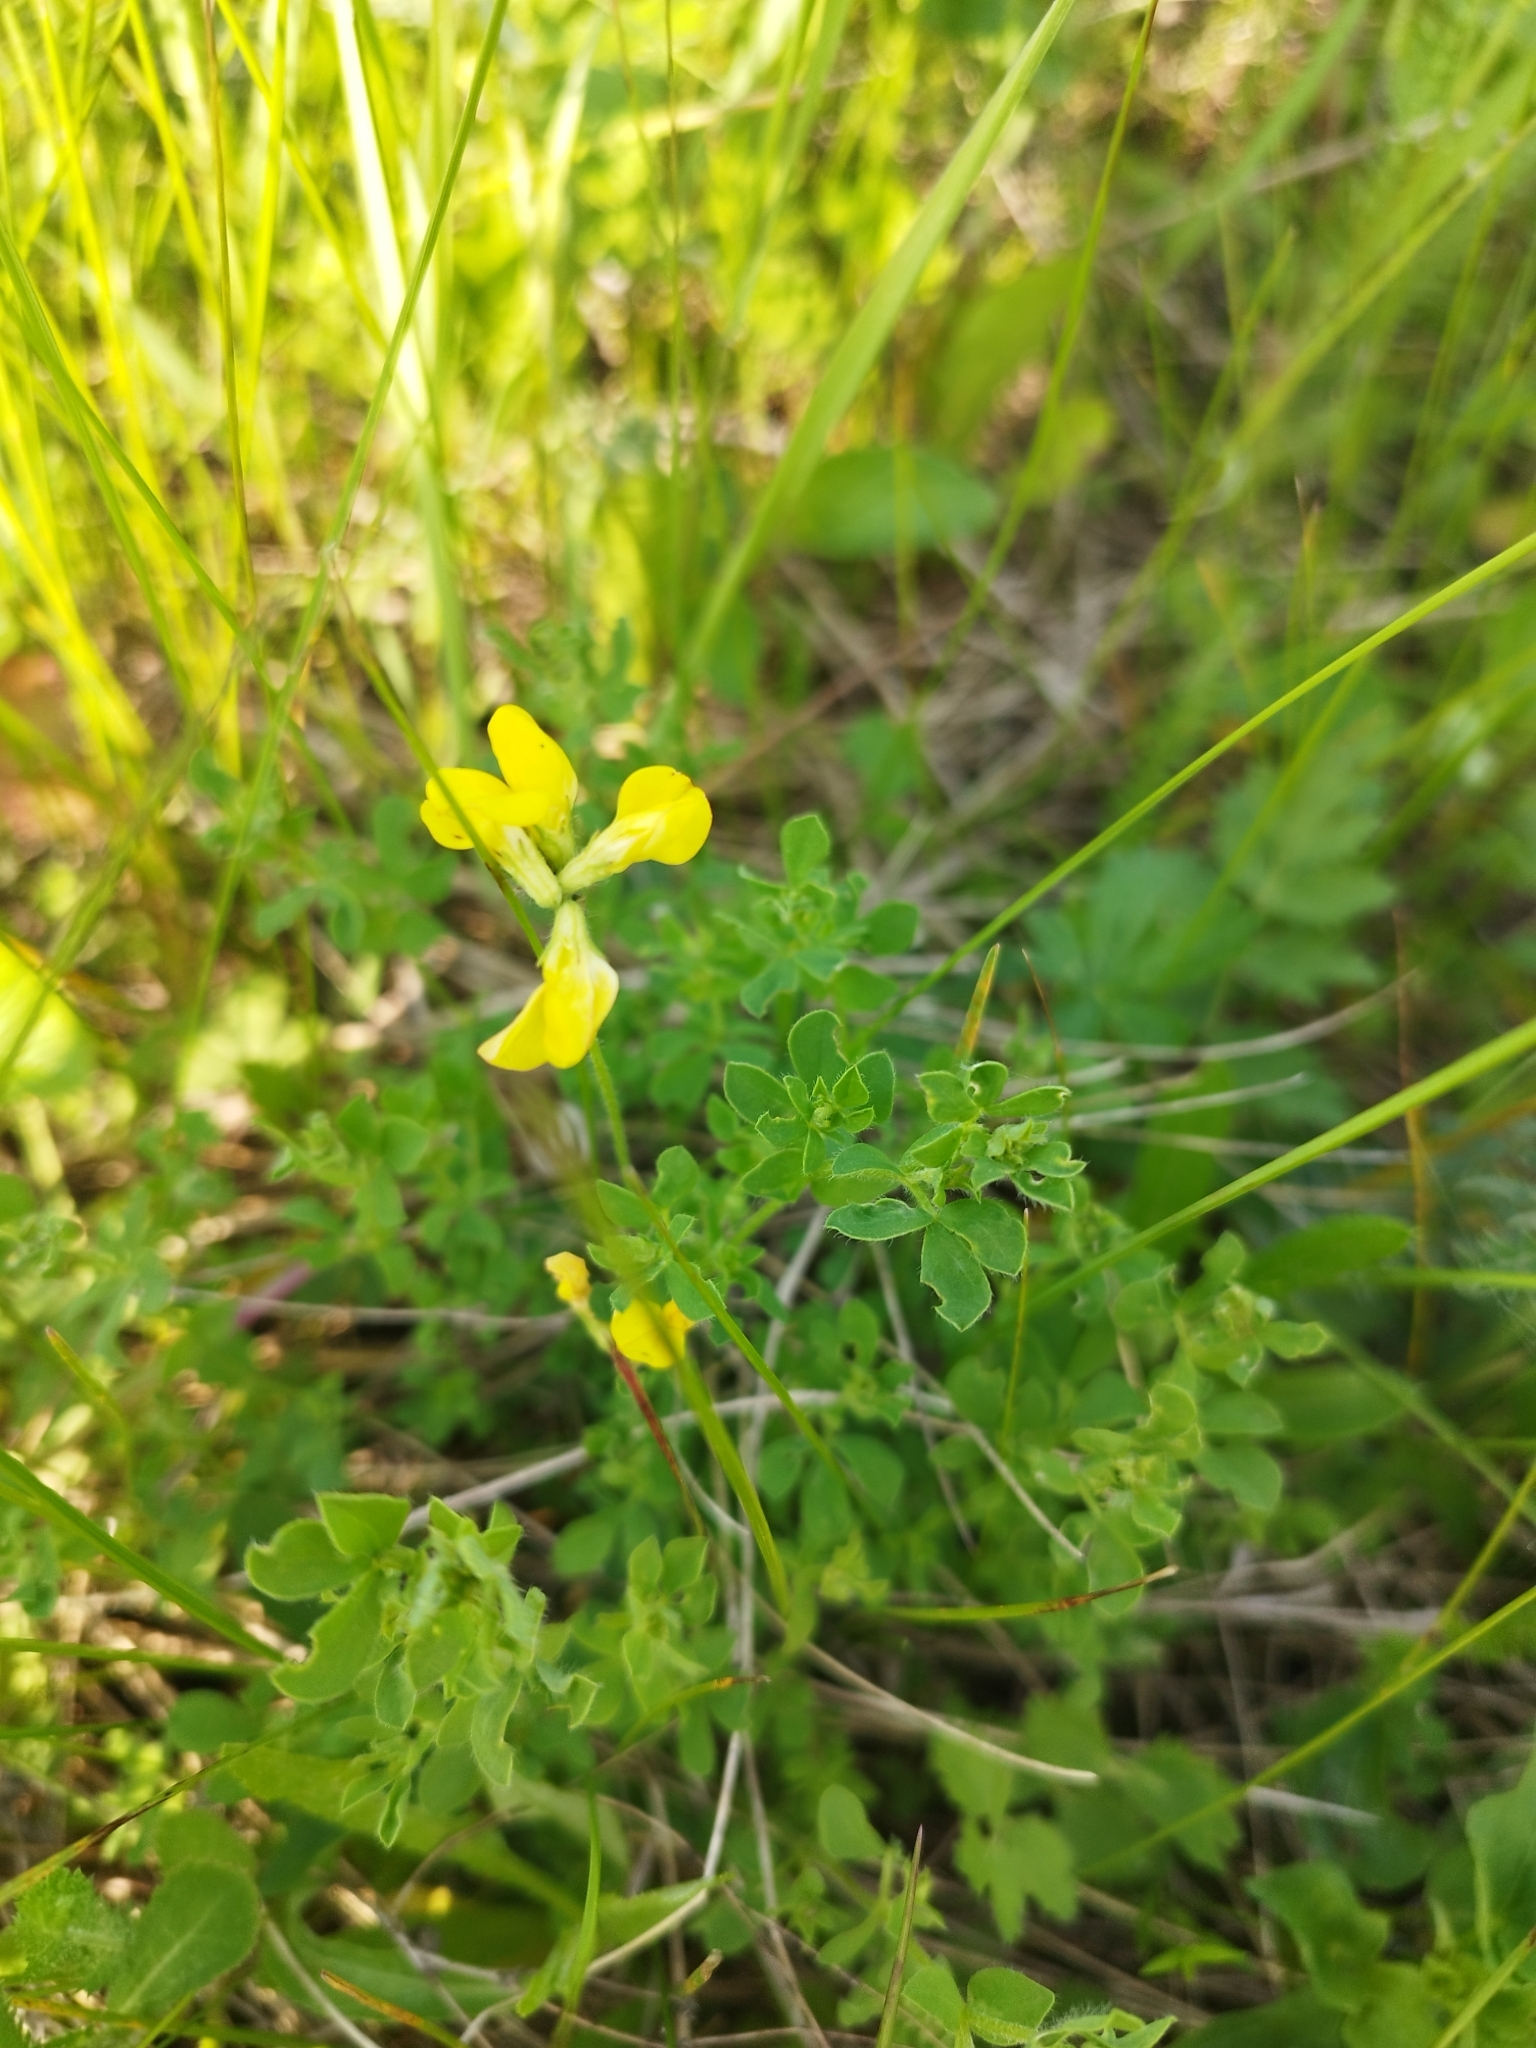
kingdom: Plantae
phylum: Tracheophyta
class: Magnoliopsida
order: Fabales
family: Fabaceae
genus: Lotus
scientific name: Lotus corniculatus
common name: Common bird's-foot-trefoil
